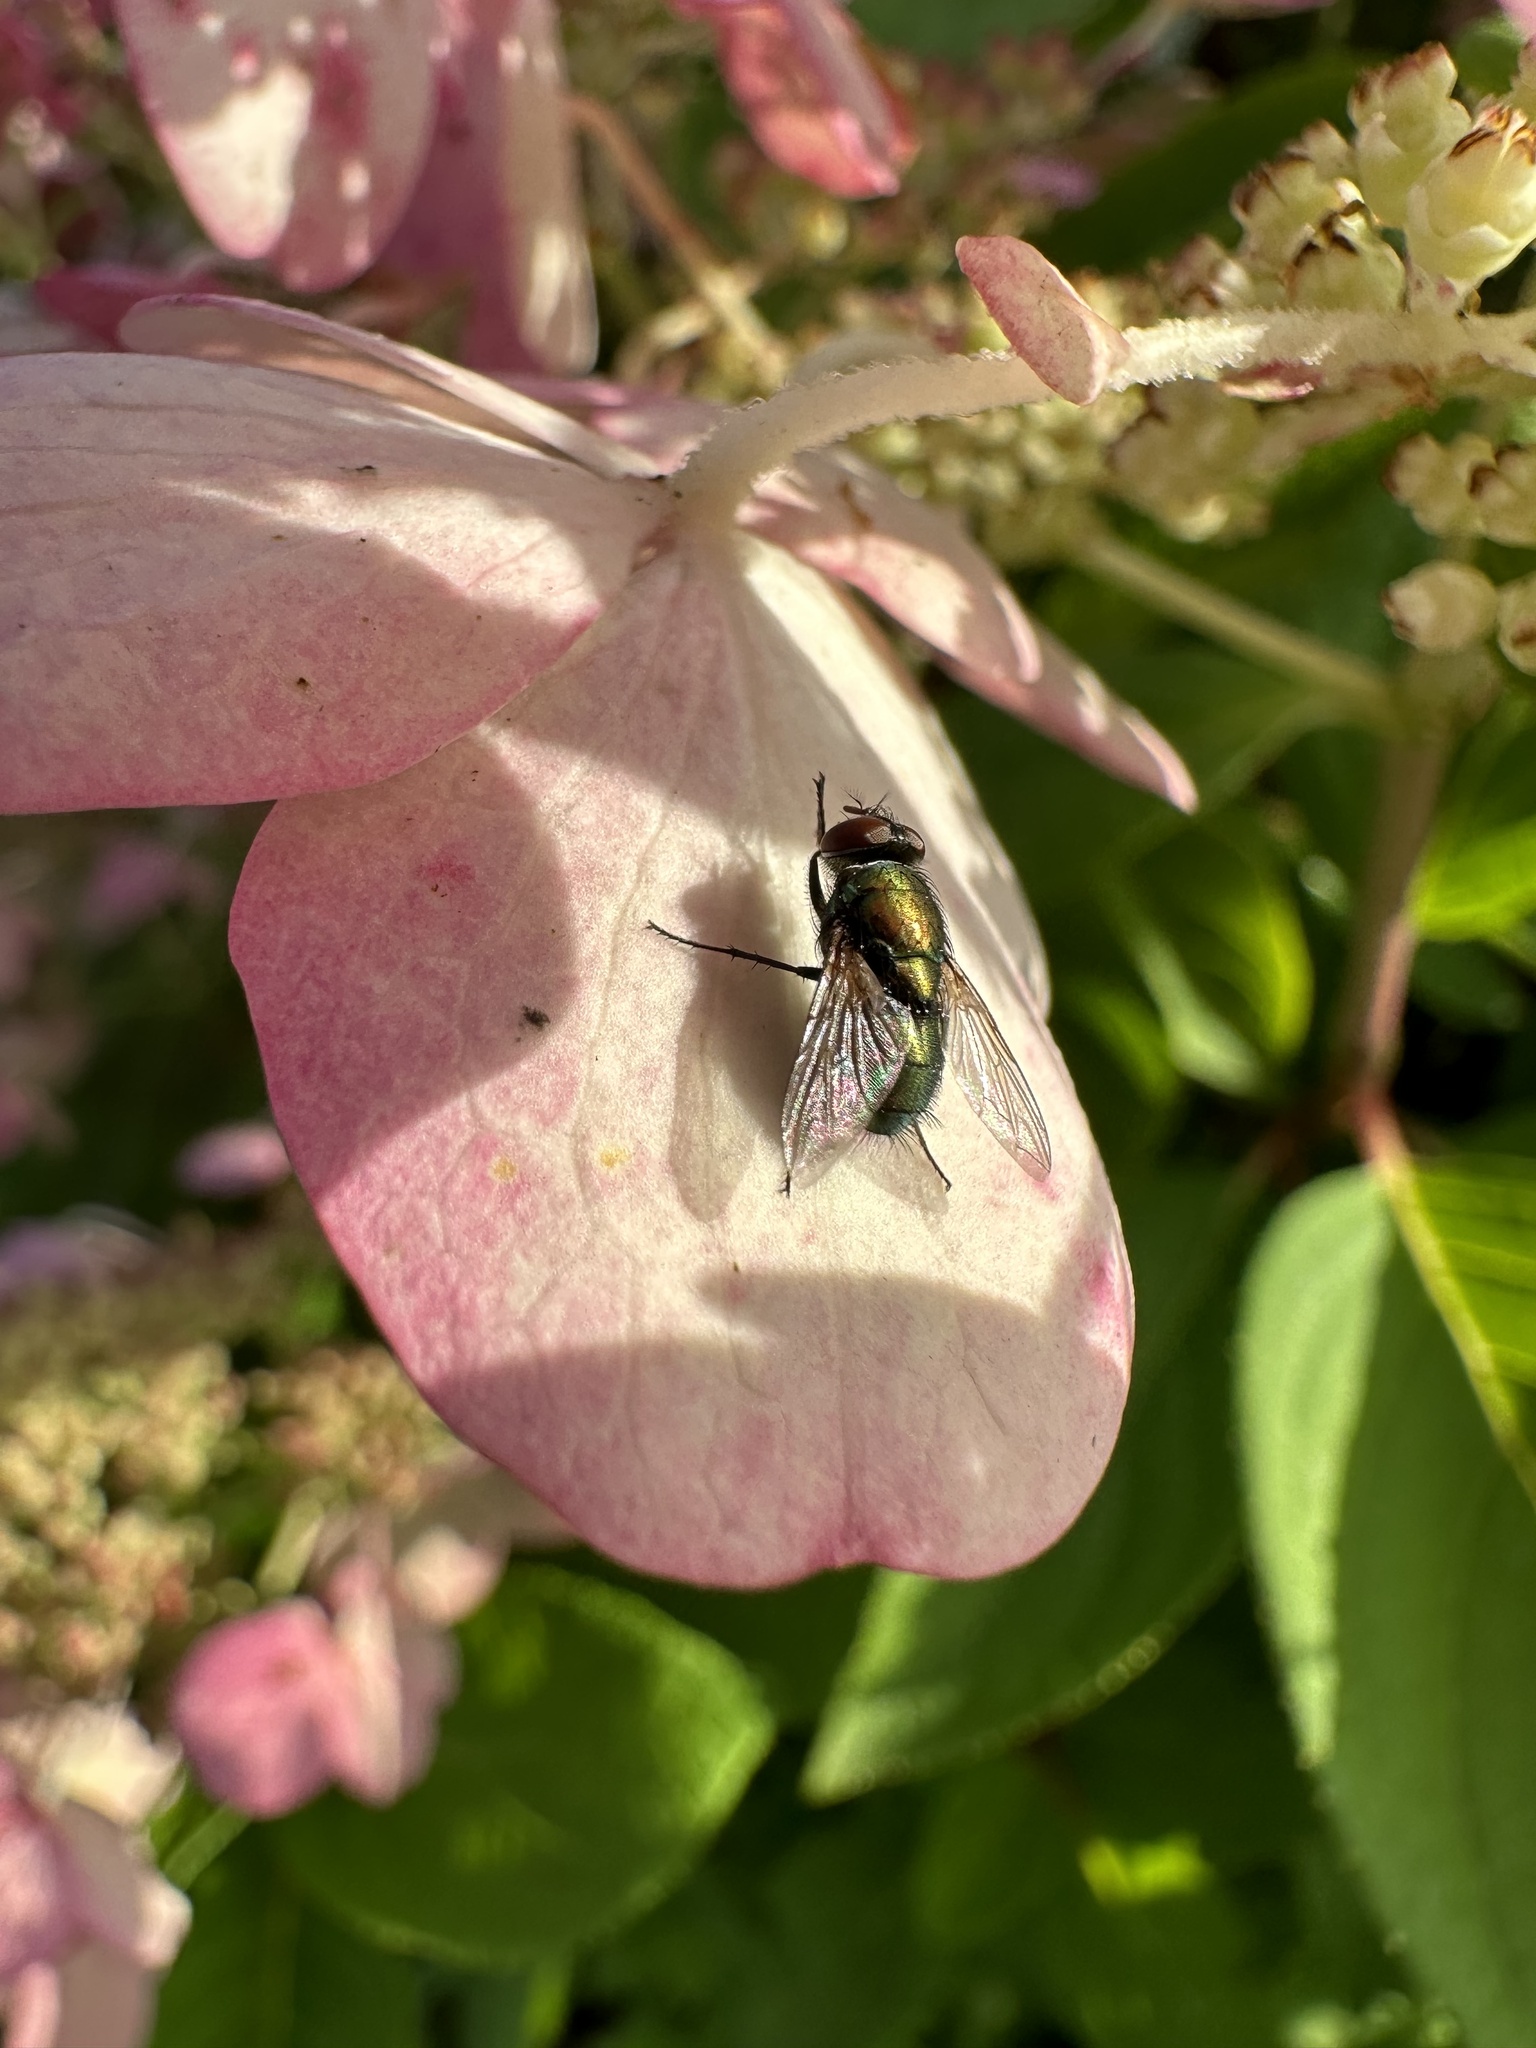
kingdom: Animalia
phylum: Arthropoda
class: Insecta
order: Diptera
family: Calliphoridae
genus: Lucilia
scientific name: Lucilia sericata
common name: Blow fly
